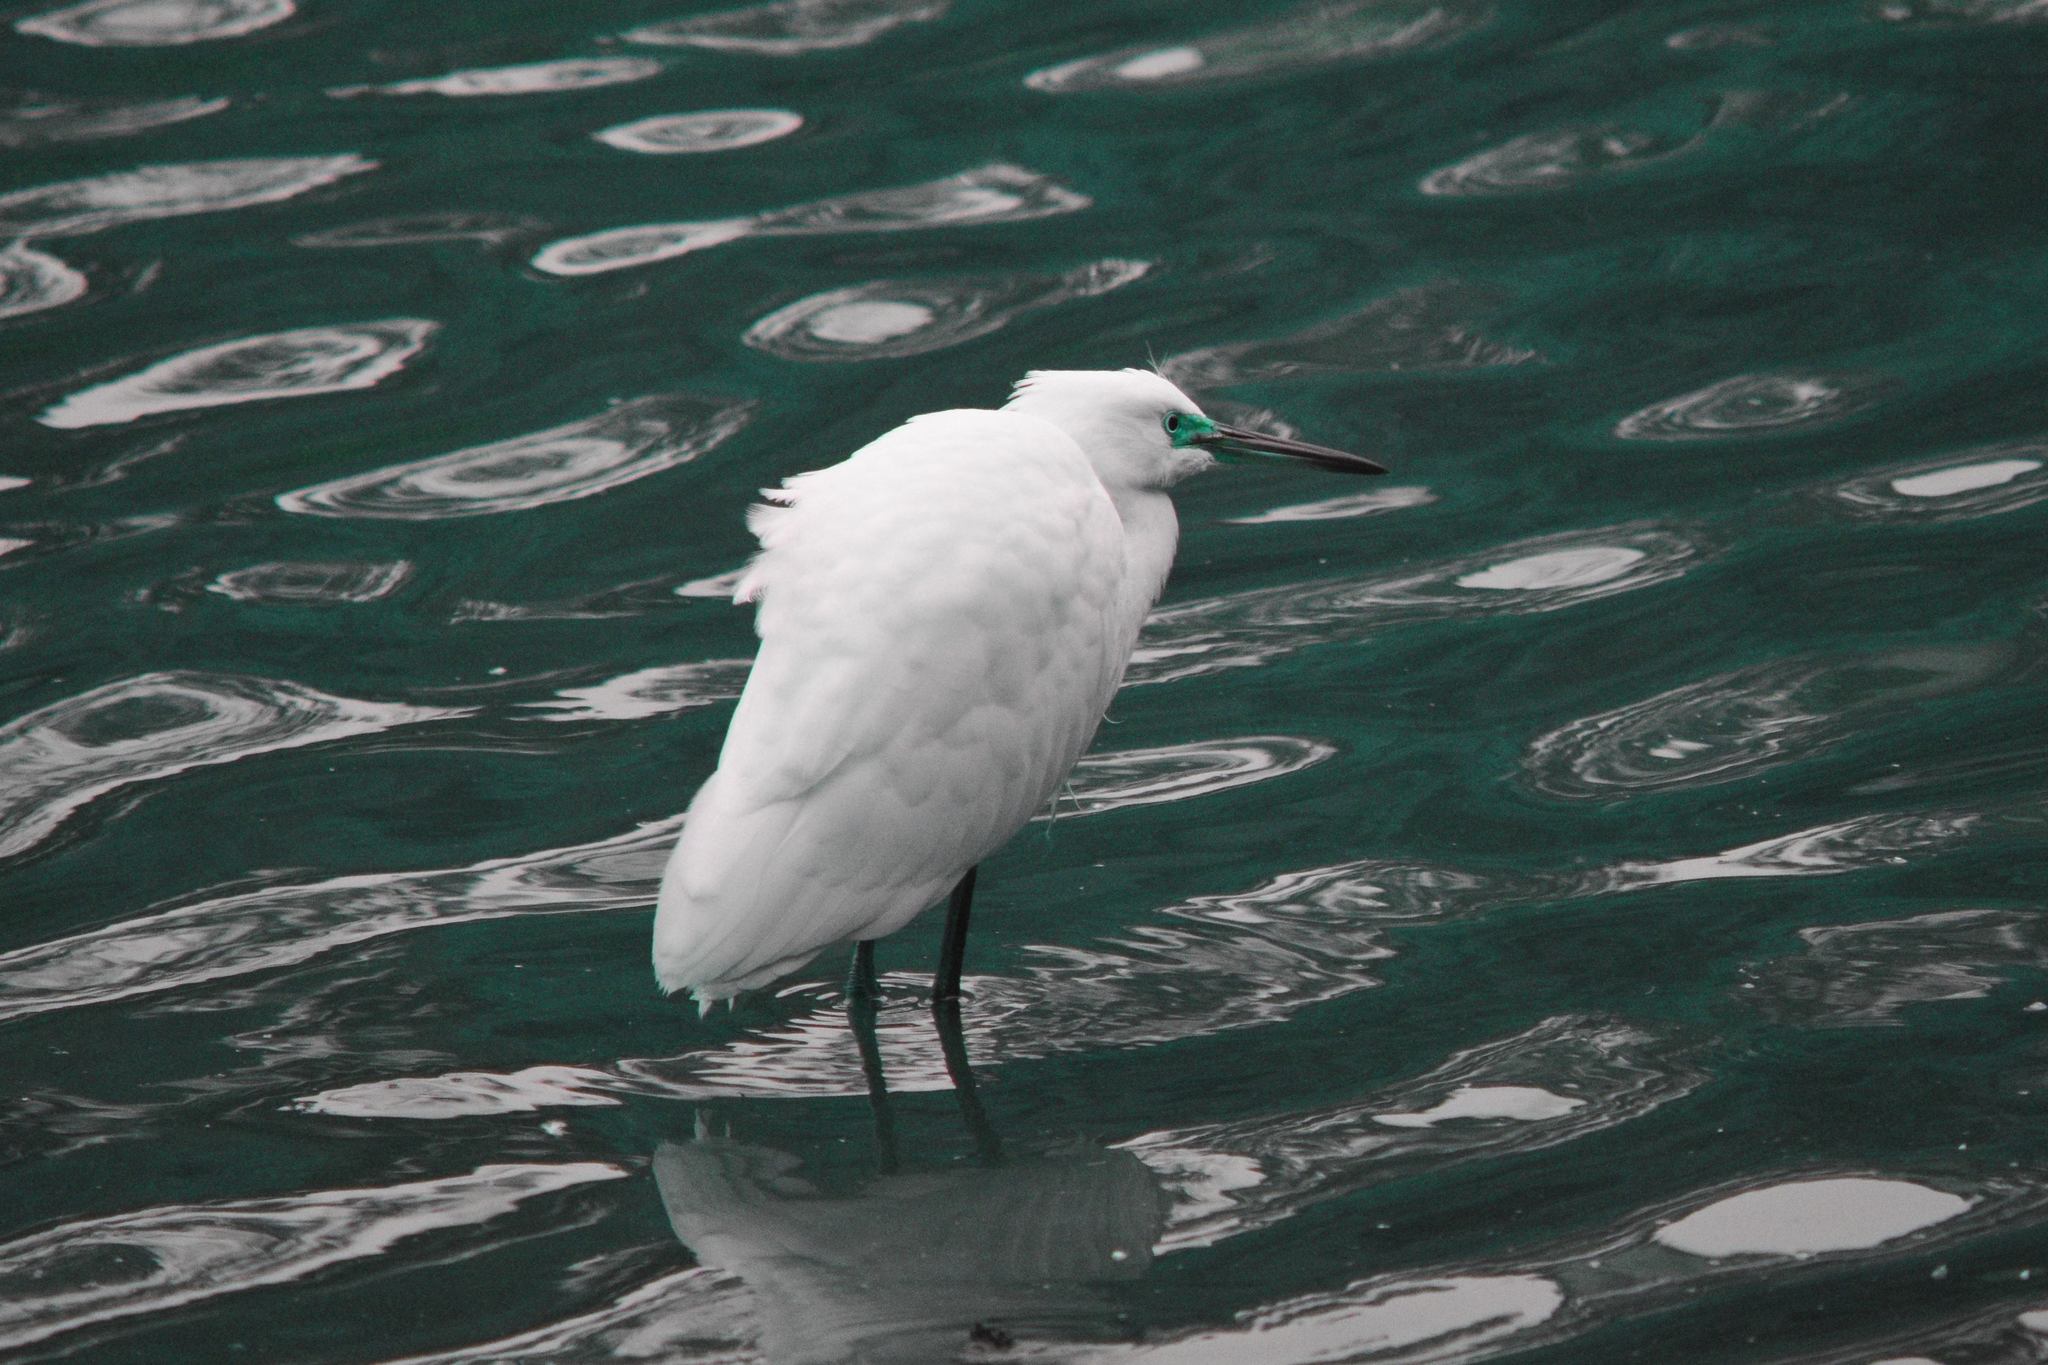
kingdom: Animalia
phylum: Chordata
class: Aves
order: Pelecaniformes
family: Ardeidae
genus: Egretta
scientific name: Egretta thula
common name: Snowy egret
